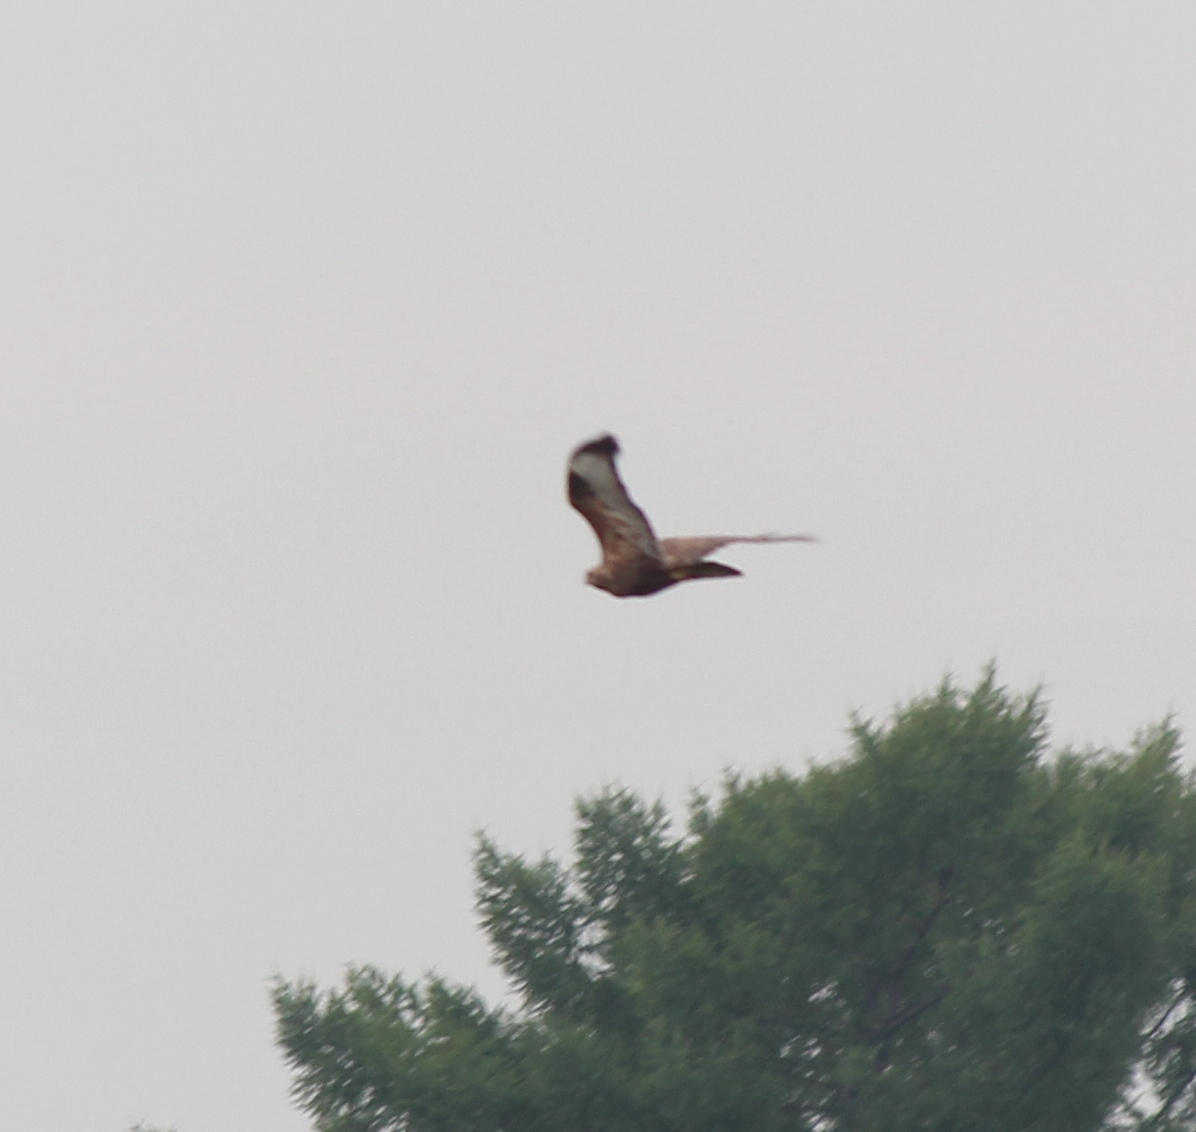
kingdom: Animalia
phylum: Chordata
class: Aves
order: Accipitriformes
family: Accipitridae
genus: Buteo
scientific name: Buteo buteo
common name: Common buzzard
